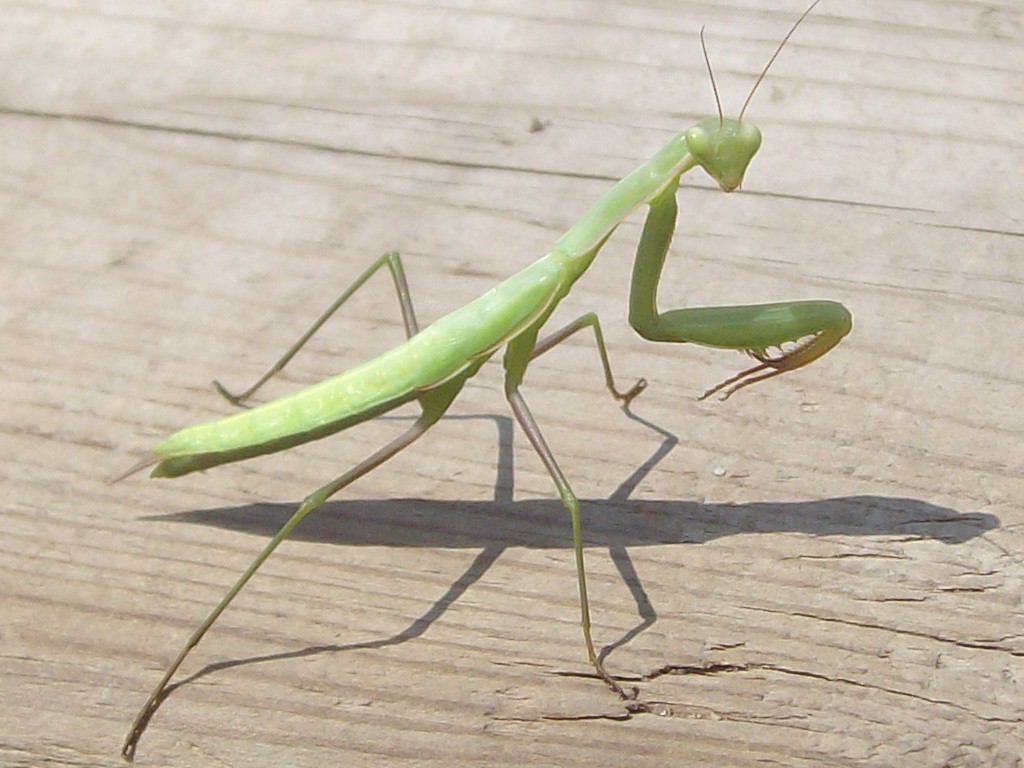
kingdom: Animalia
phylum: Arthropoda
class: Insecta
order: Mantodea
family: Mantidae
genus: Mantis
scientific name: Mantis religiosa
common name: Praying mantis
